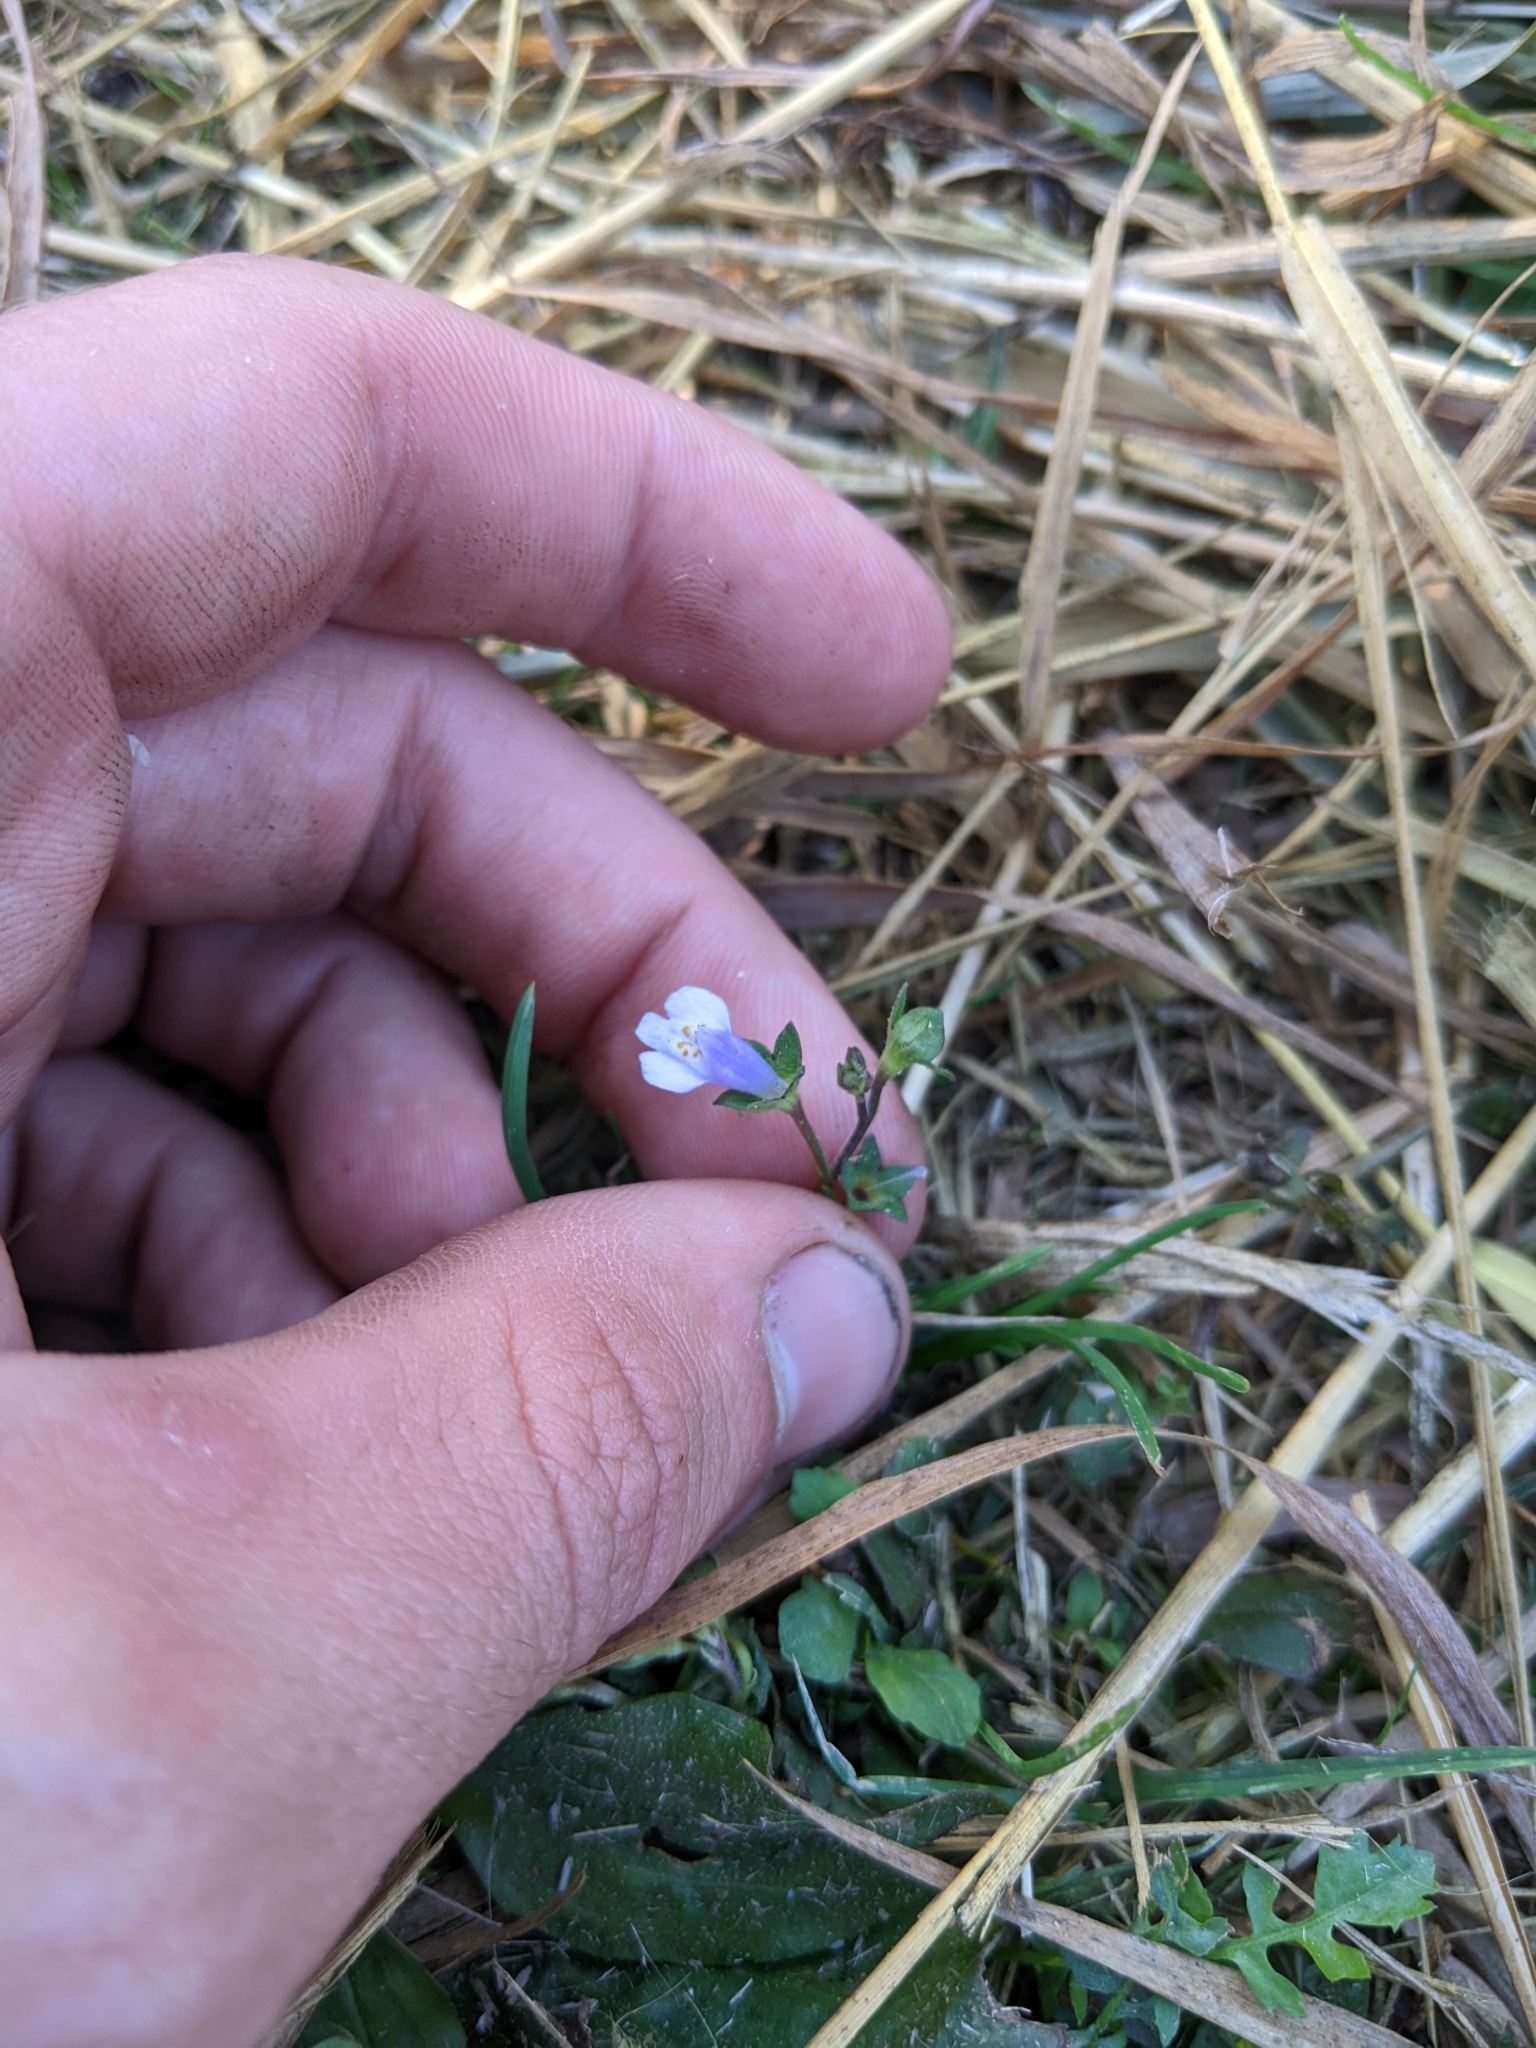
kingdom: Plantae
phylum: Tracheophyta
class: Magnoliopsida
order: Lamiales
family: Mazaceae
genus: Mazus
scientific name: Mazus pumilus
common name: Japanese mazus
